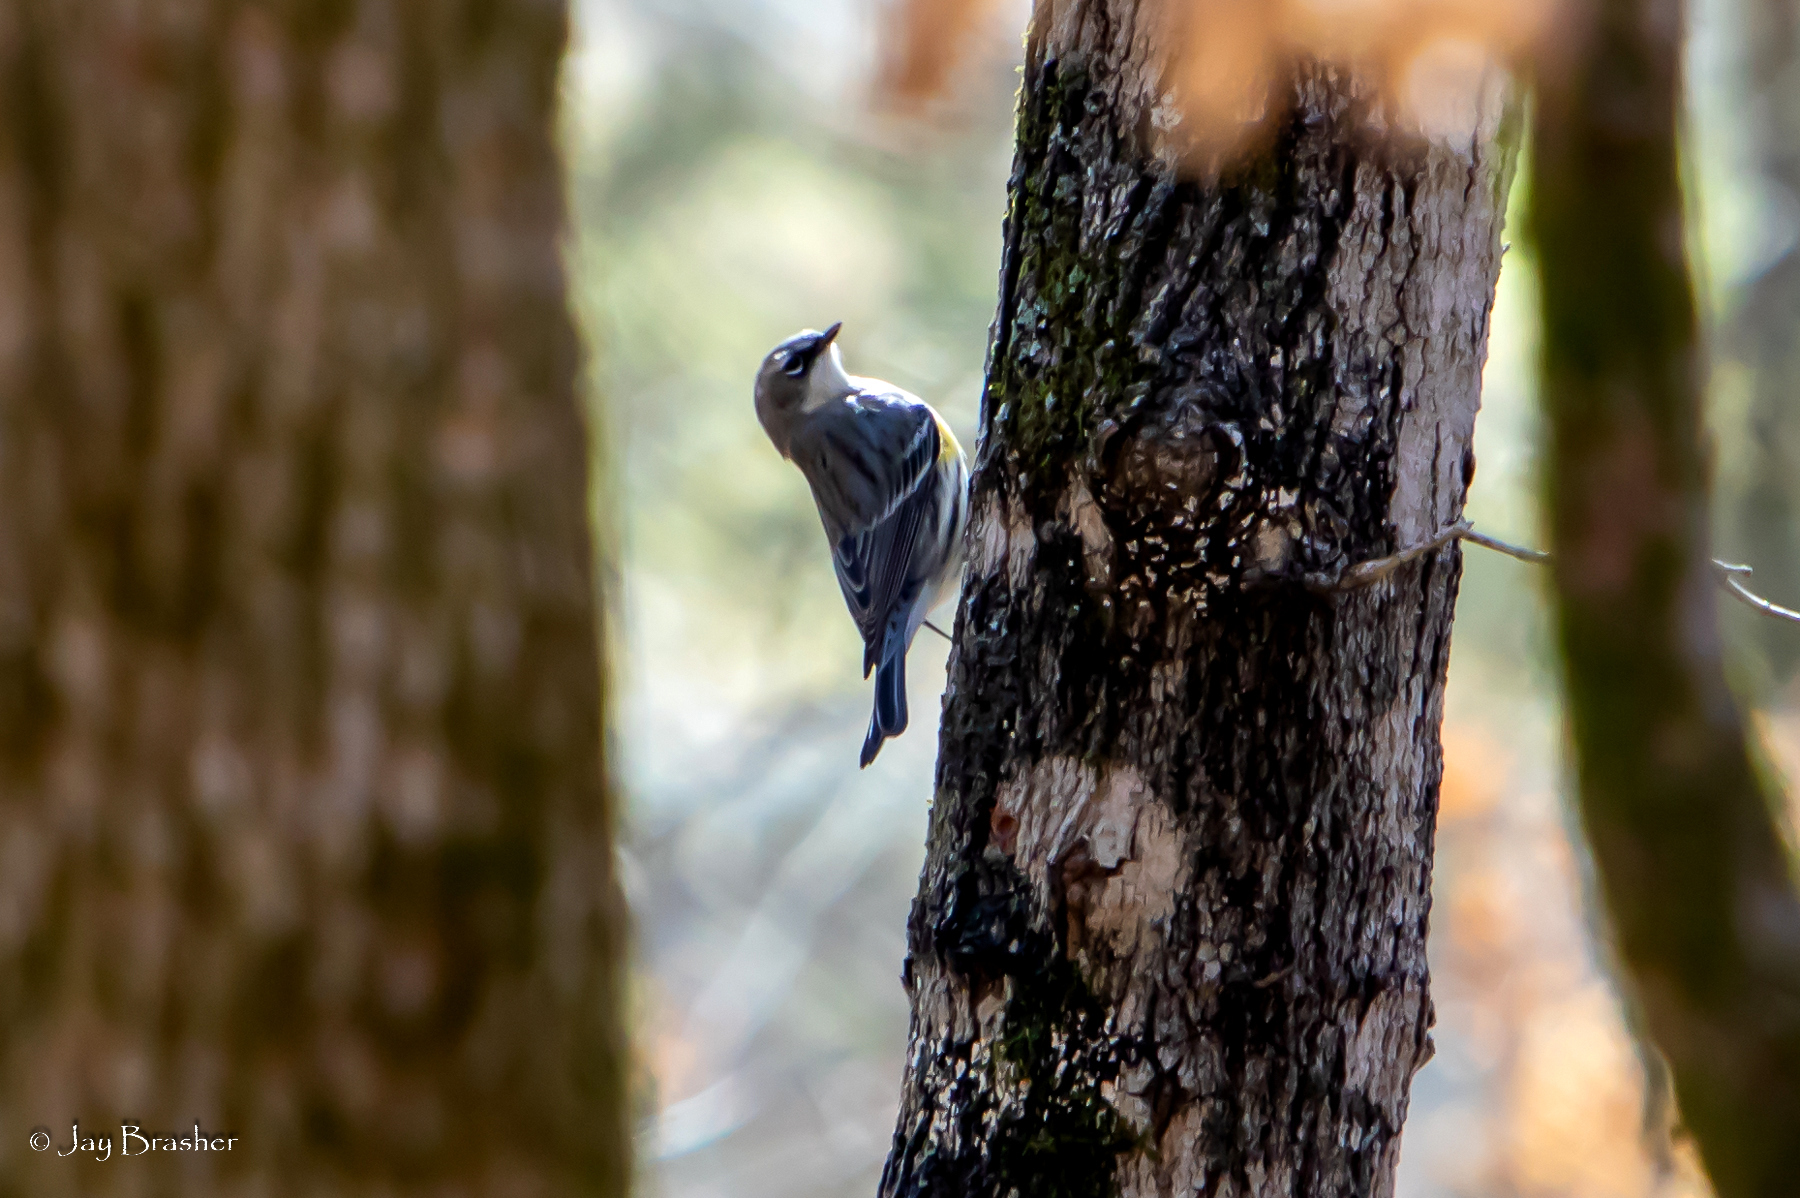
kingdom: Animalia
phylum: Chordata
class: Aves
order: Passeriformes
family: Parulidae
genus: Setophaga
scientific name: Setophaga coronata
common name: Myrtle warbler
